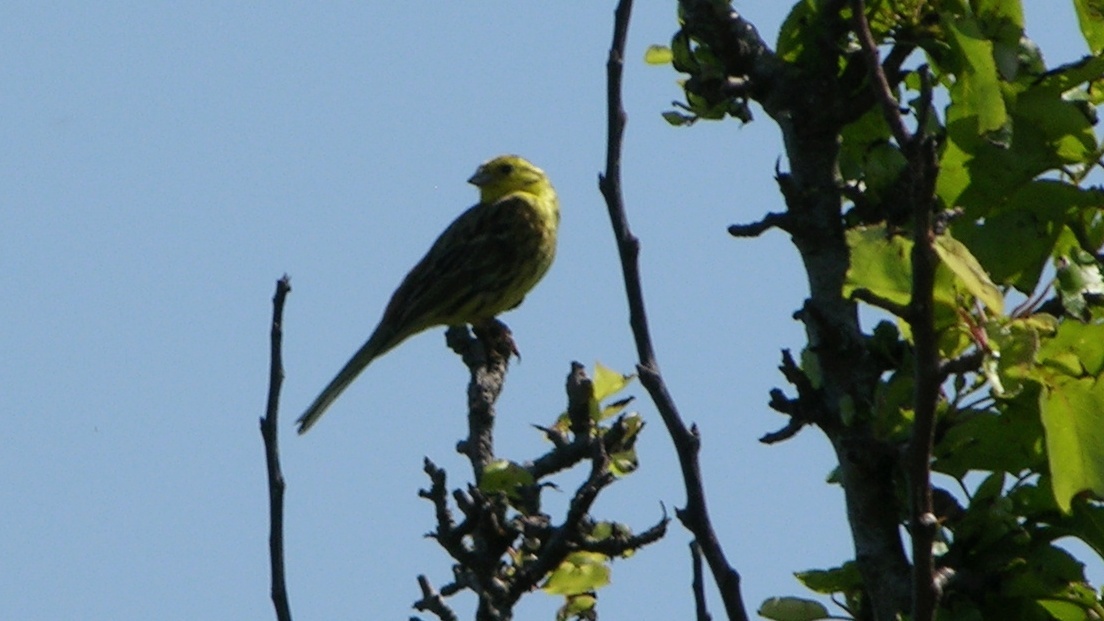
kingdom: Animalia
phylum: Chordata
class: Aves
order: Passeriformes
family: Emberizidae
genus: Emberiza
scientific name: Emberiza citrinella
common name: Yellowhammer
